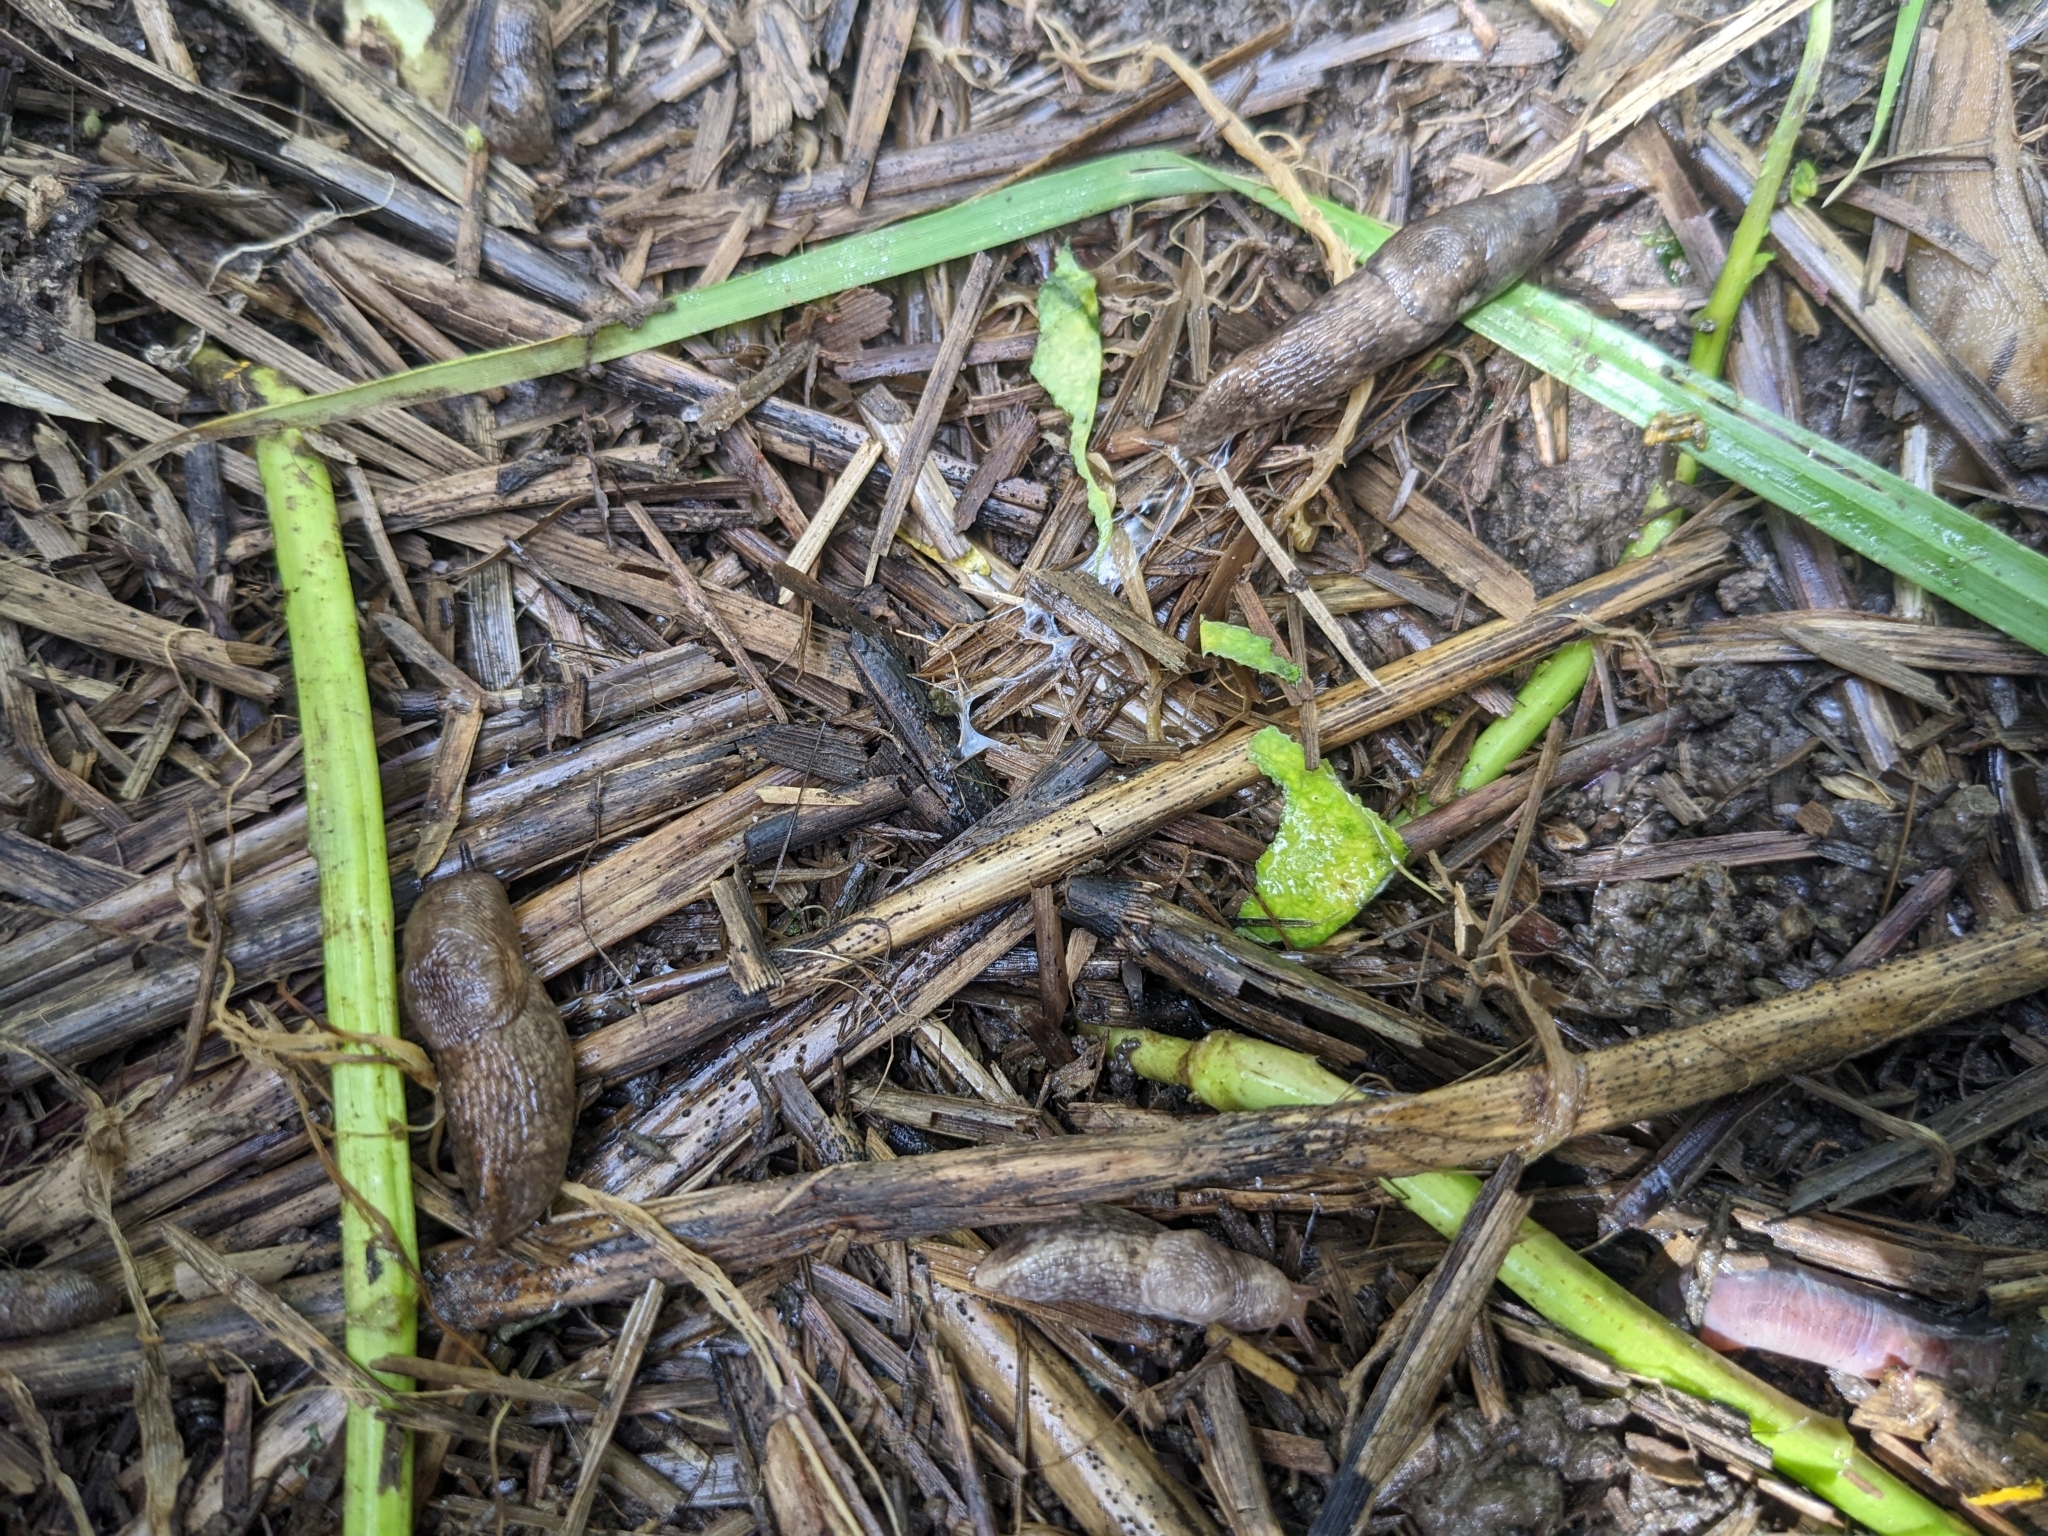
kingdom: Animalia
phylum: Mollusca
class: Gastropoda
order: Stylommatophora
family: Agriolimacidae
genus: Deroceras
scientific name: Deroceras reticulatum
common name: Gray field slug
